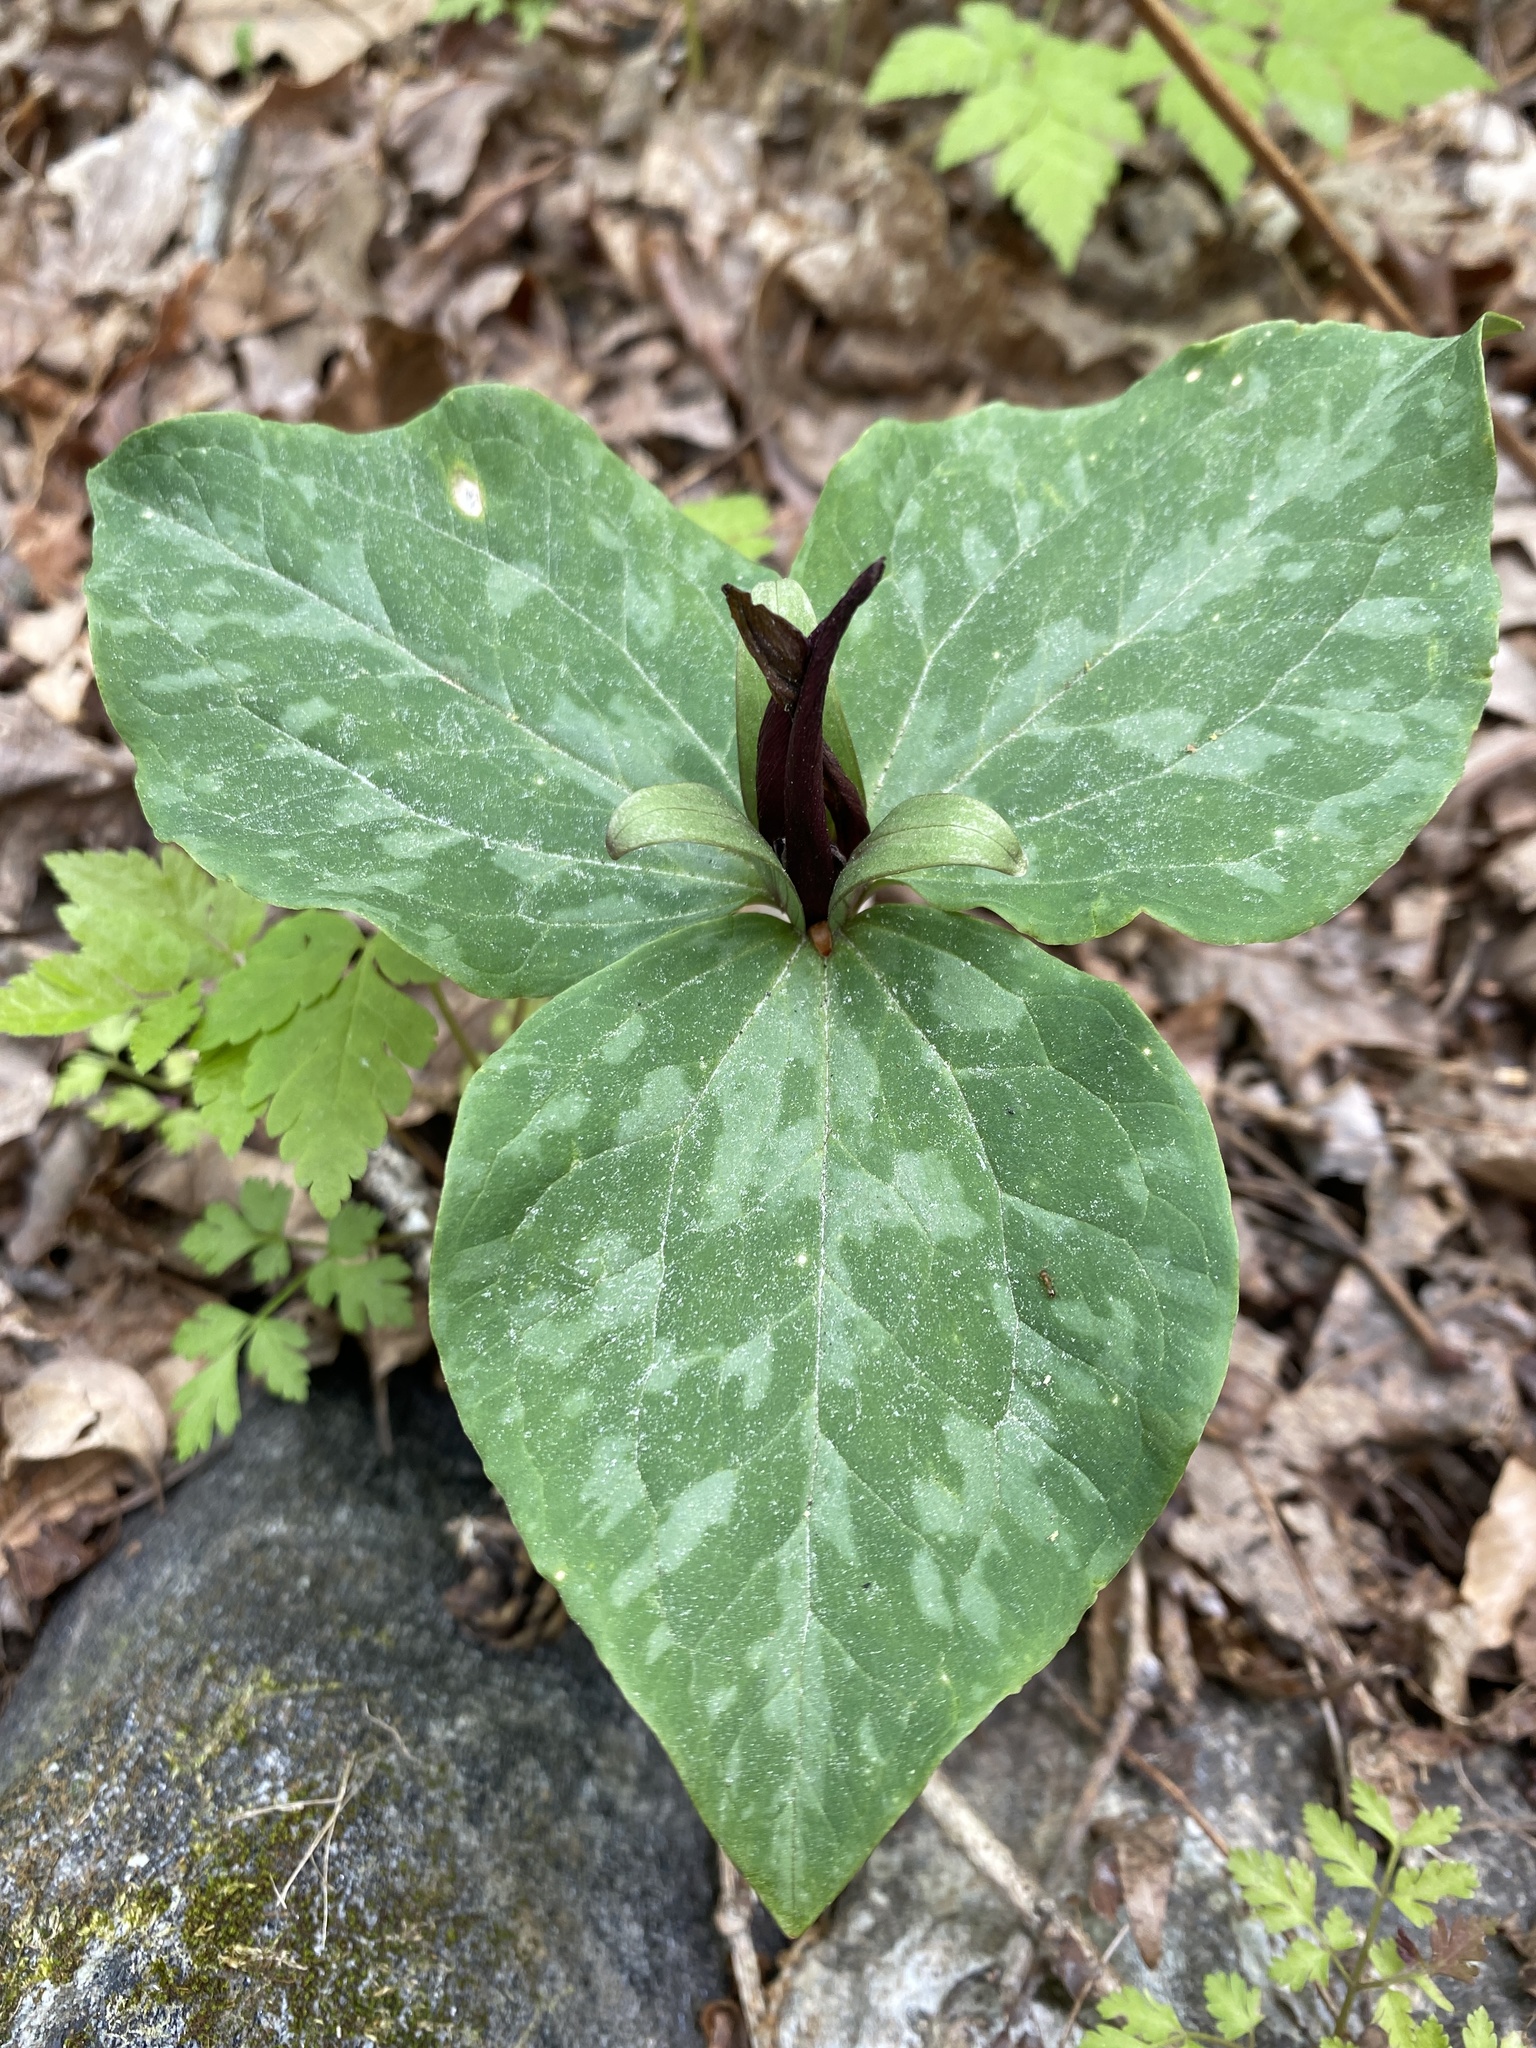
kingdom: Plantae
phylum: Tracheophyta
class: Liliopsida
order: Liliales
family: Melanthiaceae
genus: Trillium
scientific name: Trillium cuneatum
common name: Cuneate trillium
